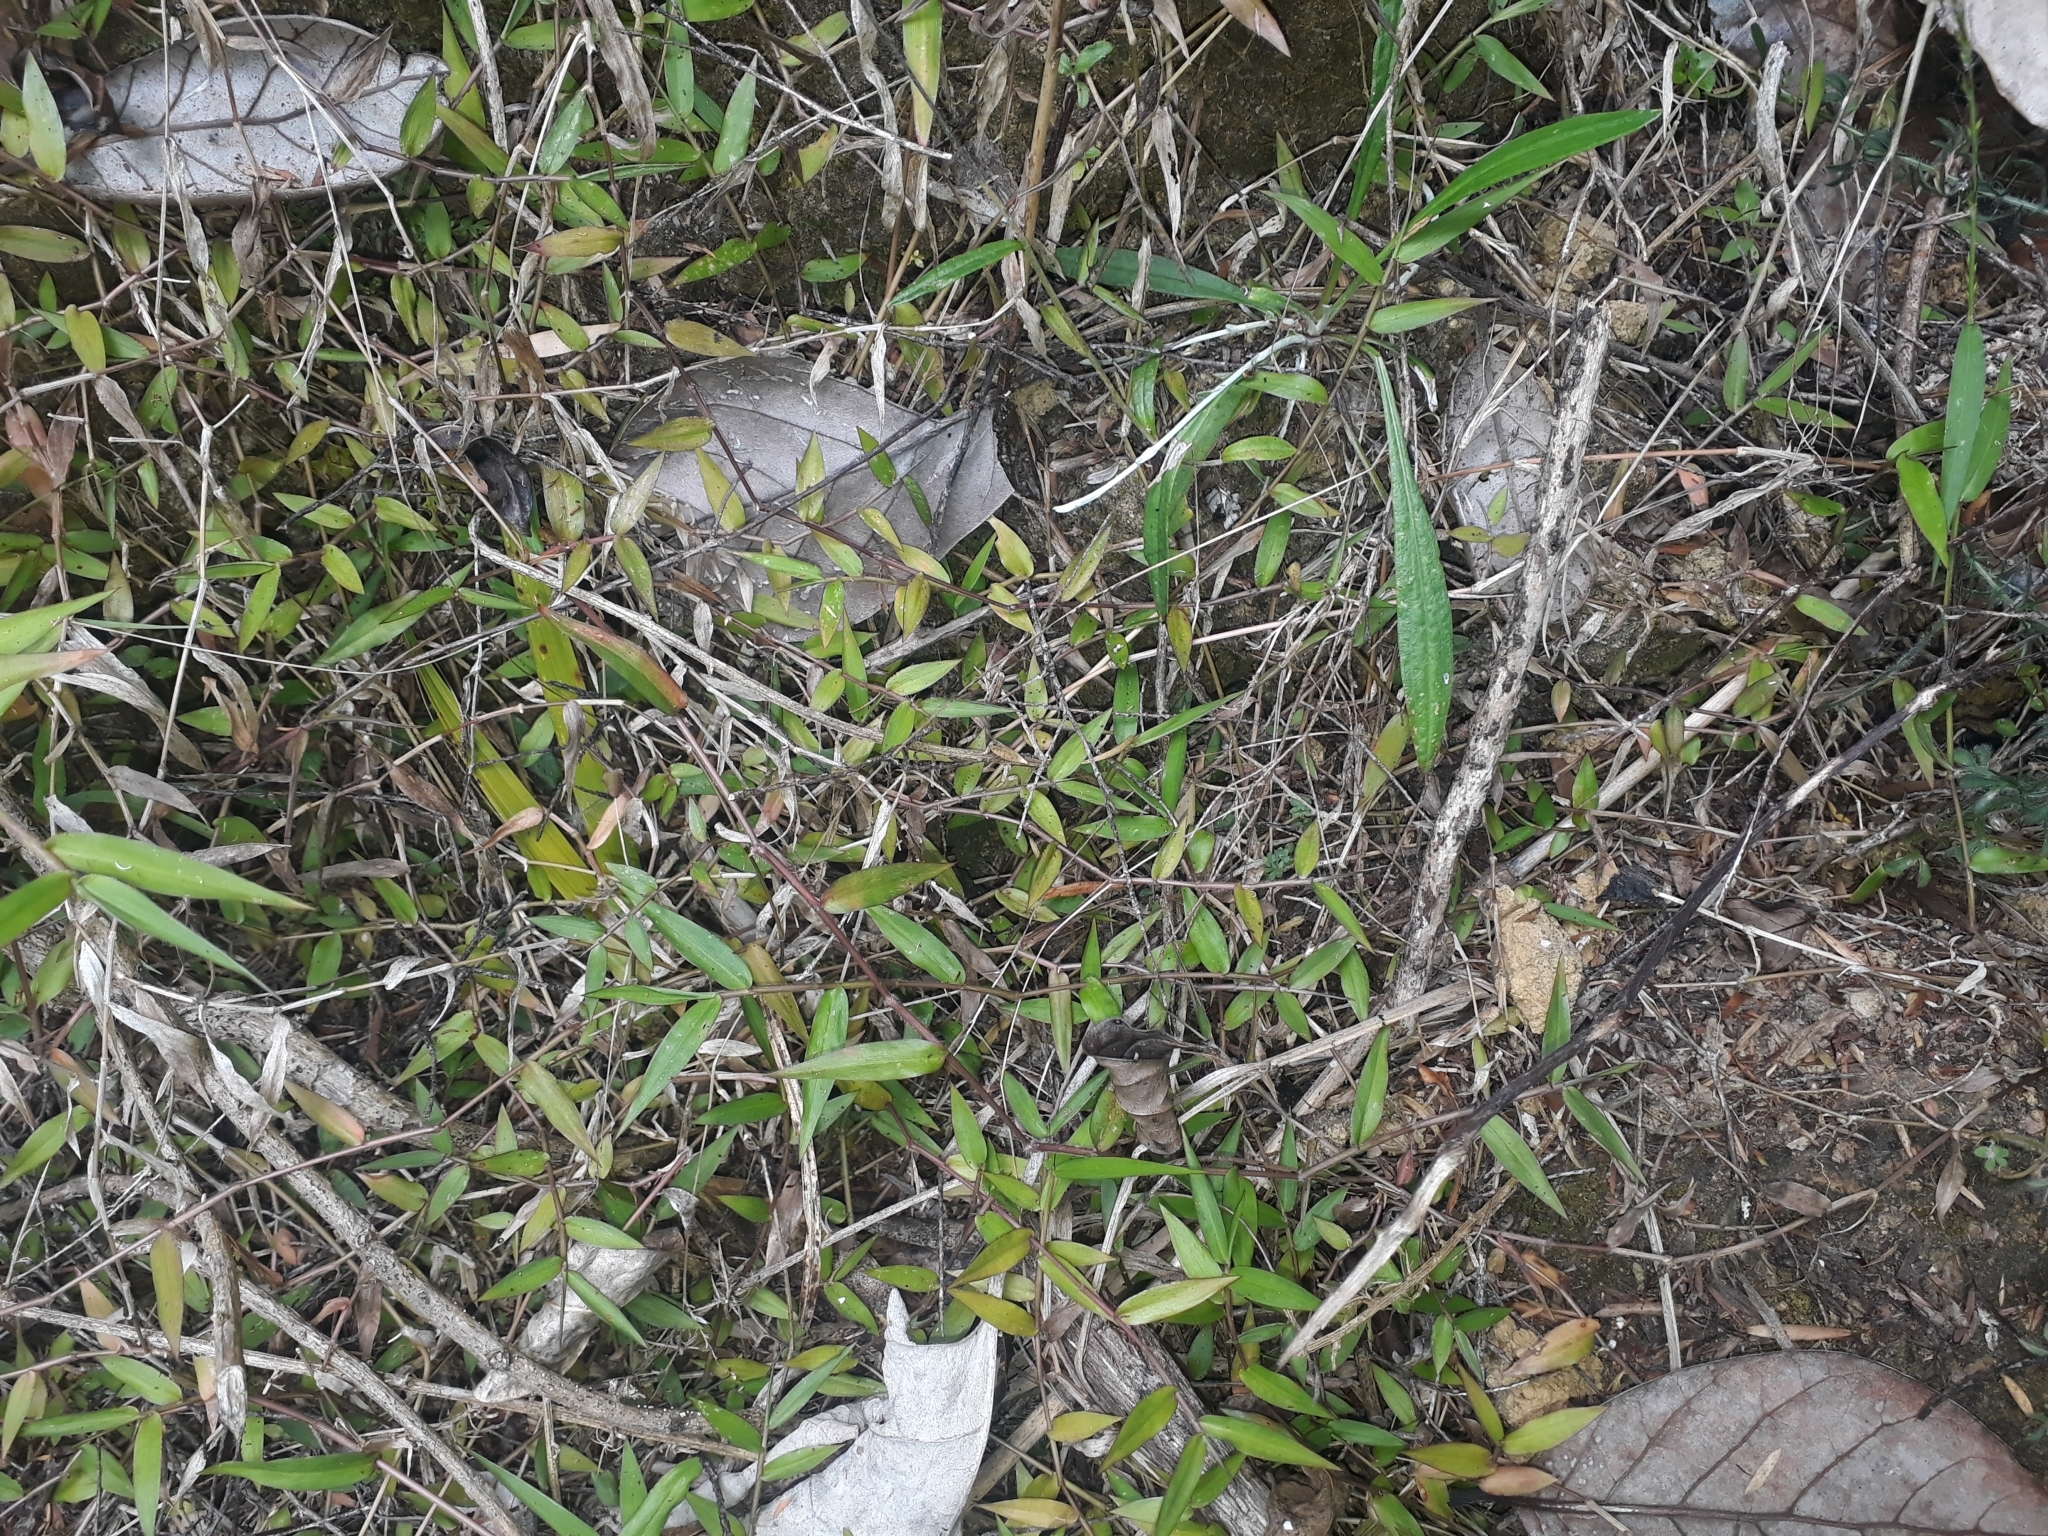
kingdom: Plantae
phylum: Tracheophyta
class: Liliopsida
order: Poales
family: Poaceae
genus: Oplismenus
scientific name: Oplismenus hirtellus
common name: Basketgrass
